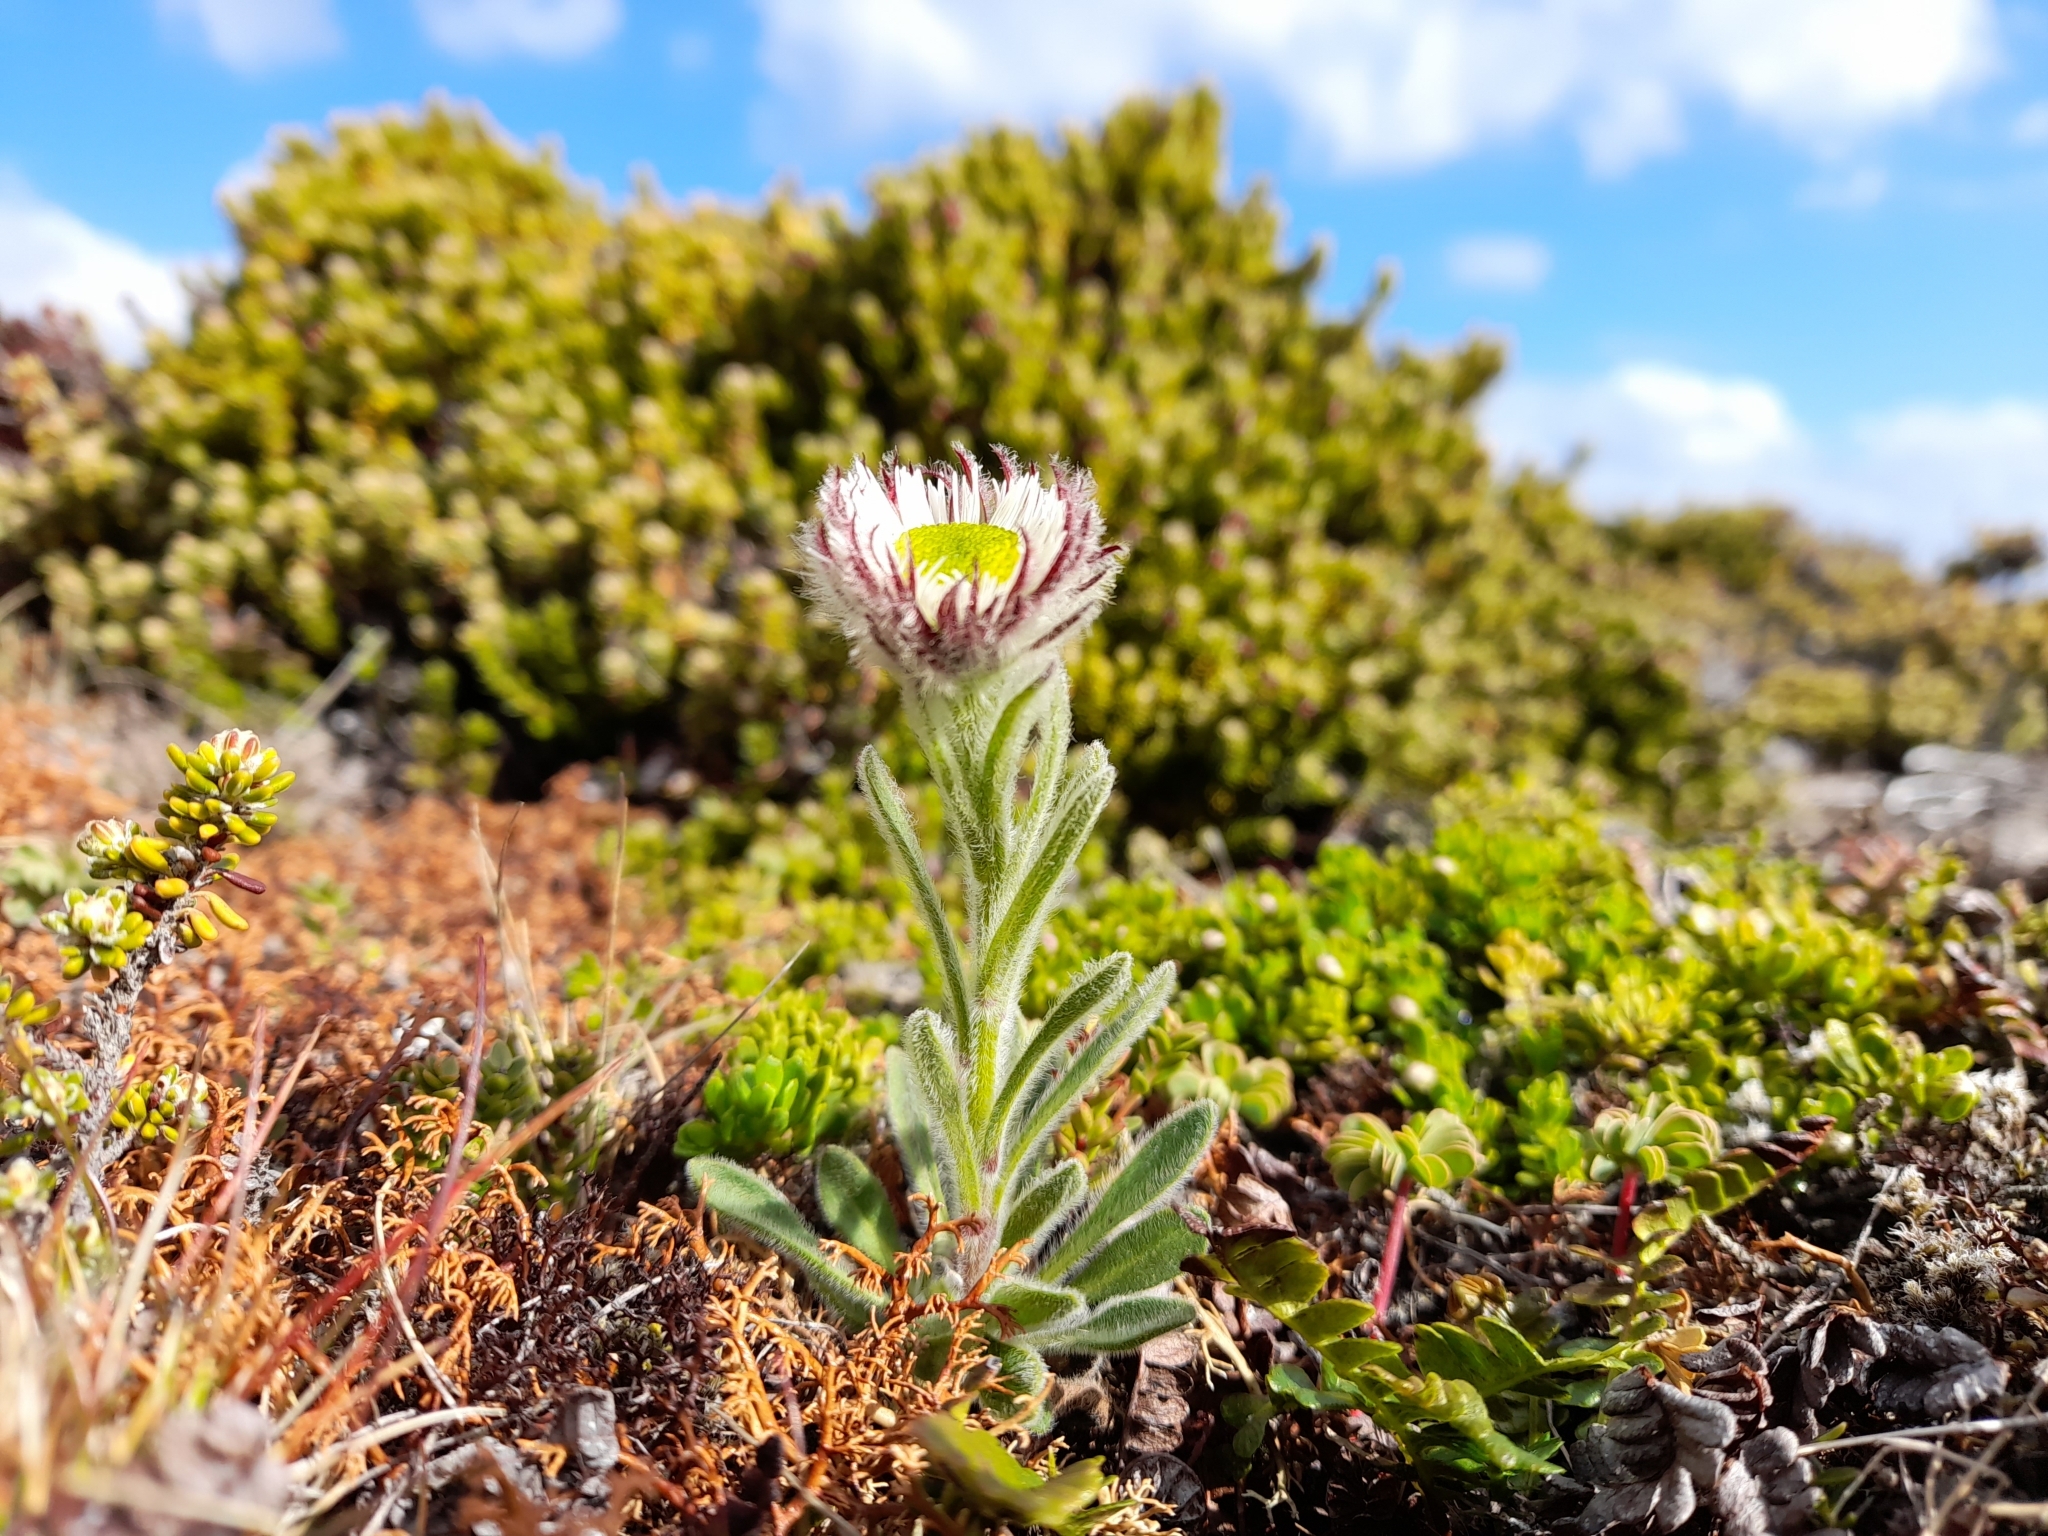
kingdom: Plantae
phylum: Tracheophyta
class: Magnoliopsida
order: Asterales
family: Asteraceae
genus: Erigeron
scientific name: Erigeron incertus
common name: Hairy daisy
